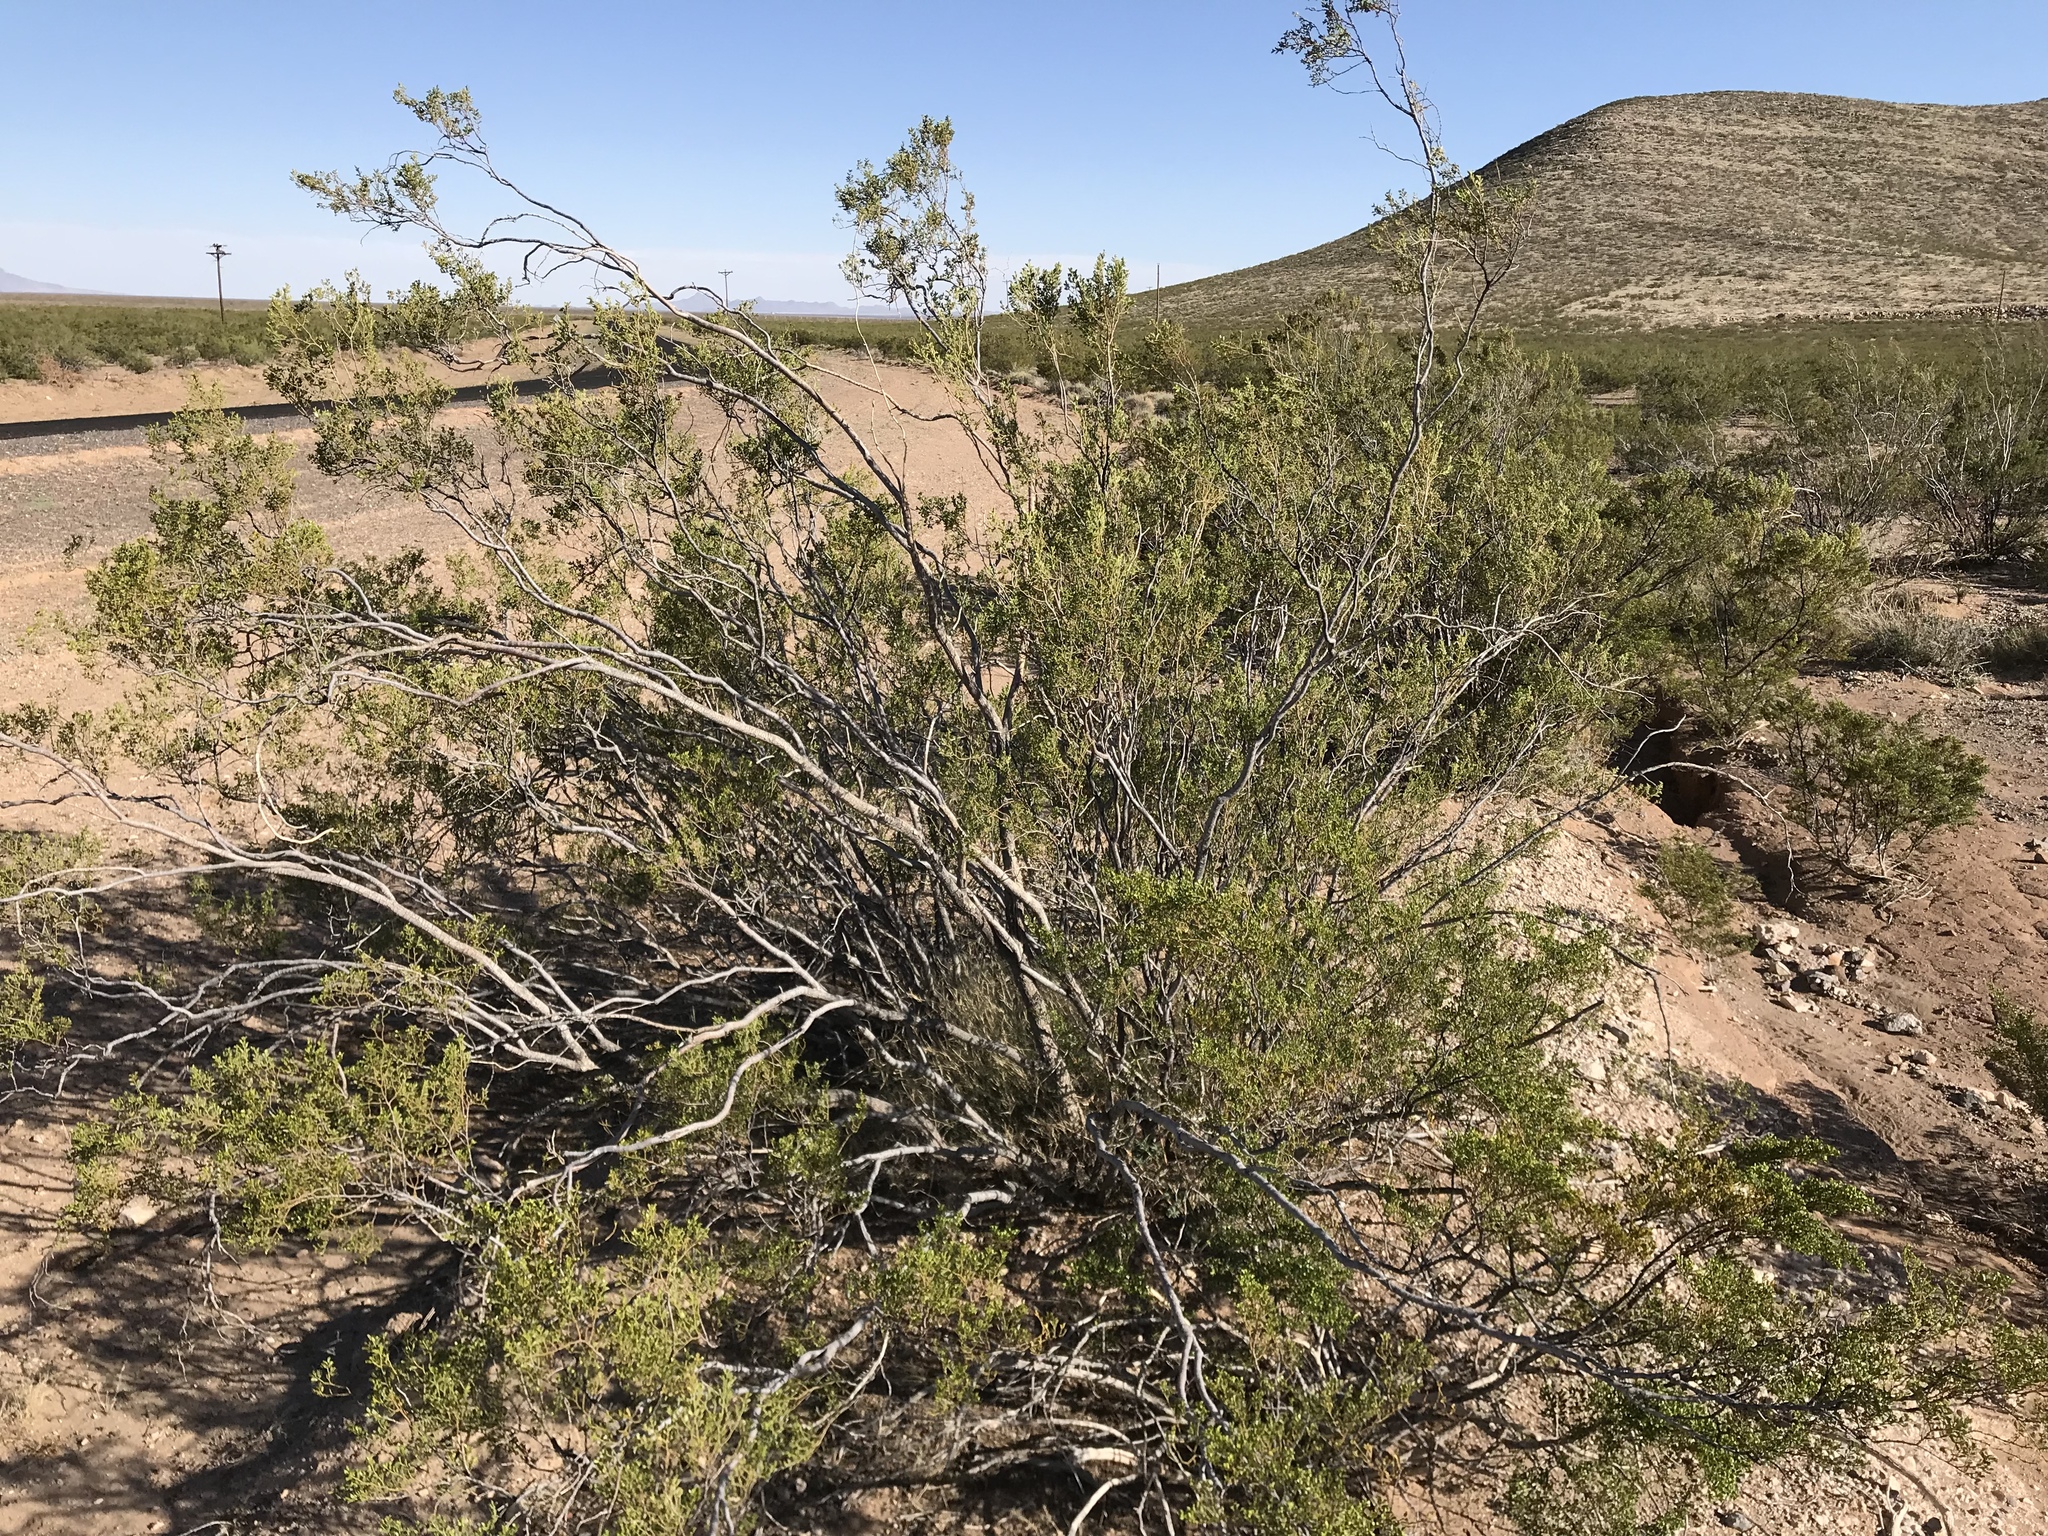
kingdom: Plantae
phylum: Tracheophyta
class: Magnoliopsida
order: Zygophyllales
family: Zygophyllaceae
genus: Larrea
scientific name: Larrea tridentata
